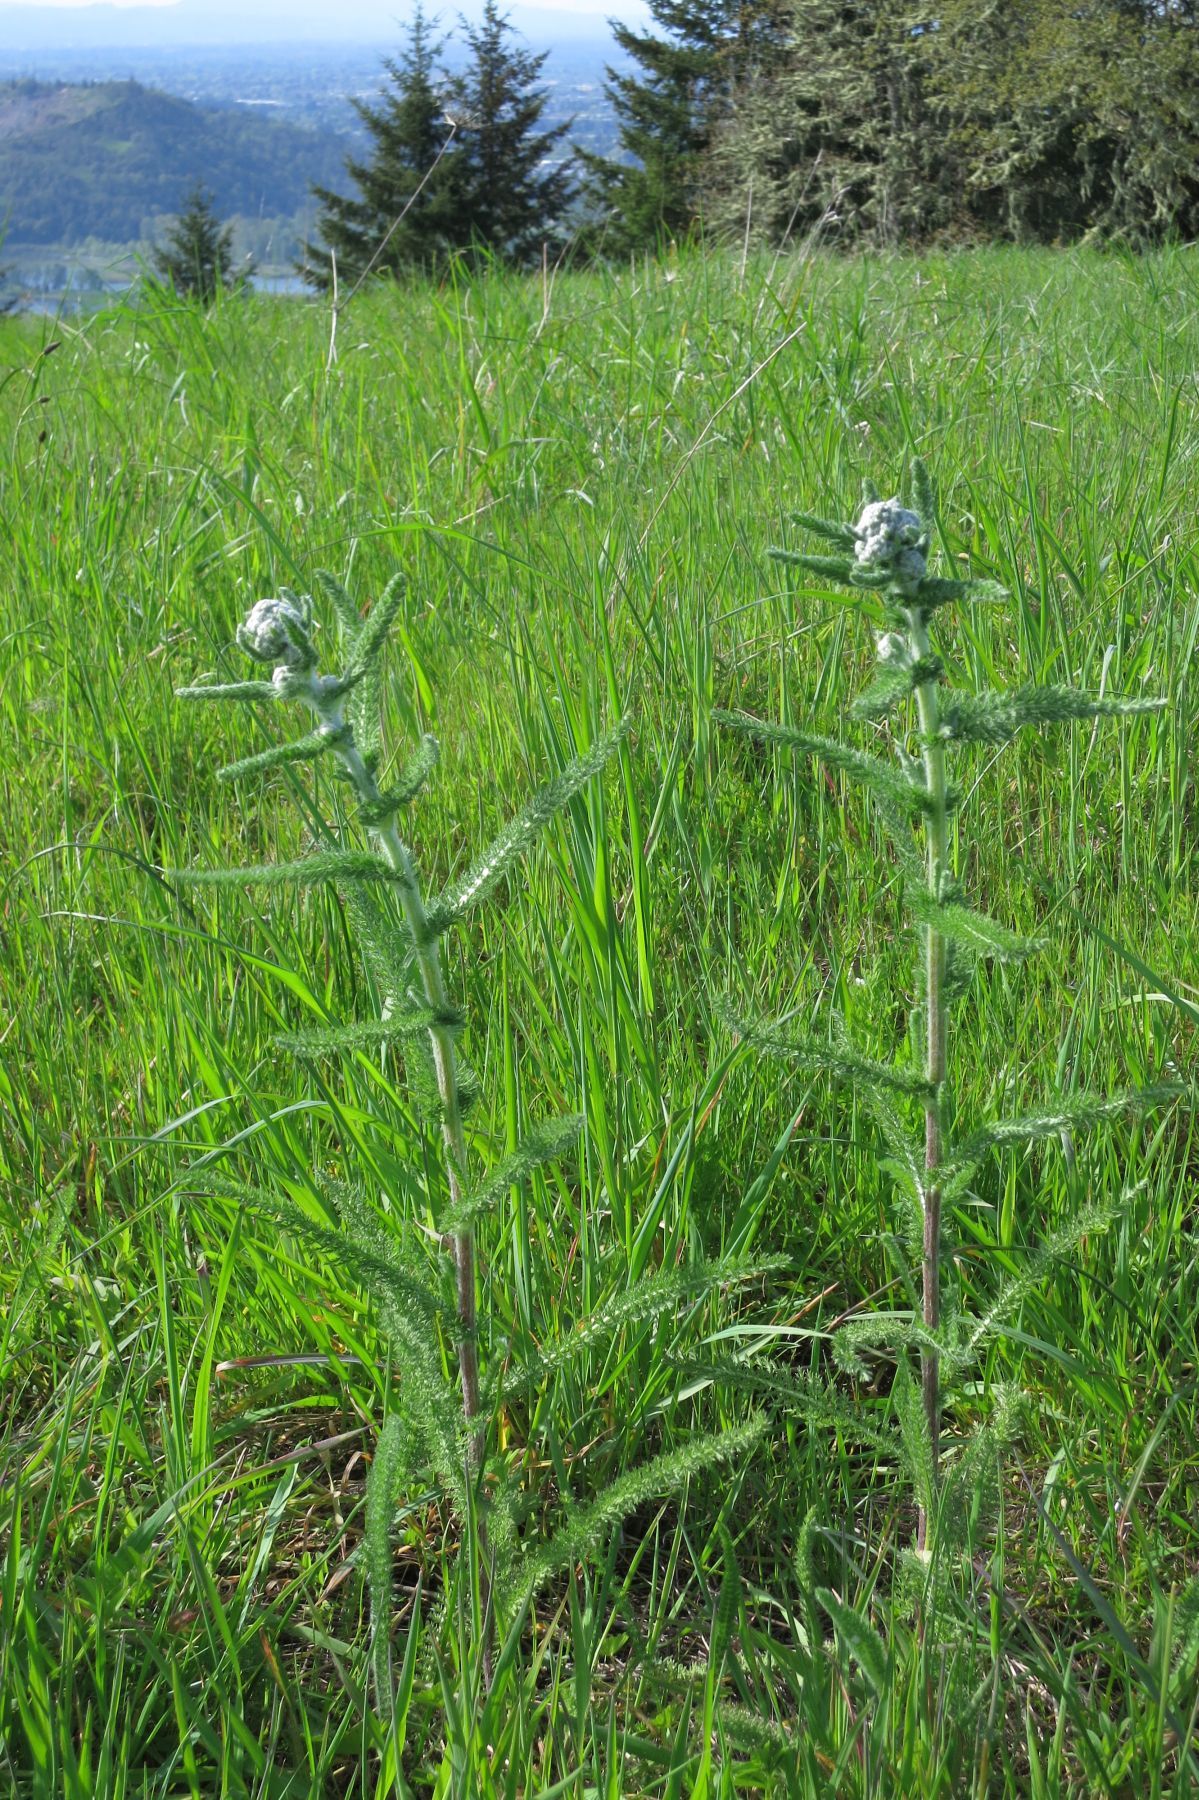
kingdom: Plantae
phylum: Tracheophyta
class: Magnoliopsida
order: Asterales
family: Asteraceae
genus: Achillea
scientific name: Achillea millefolium
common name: Yarrow
